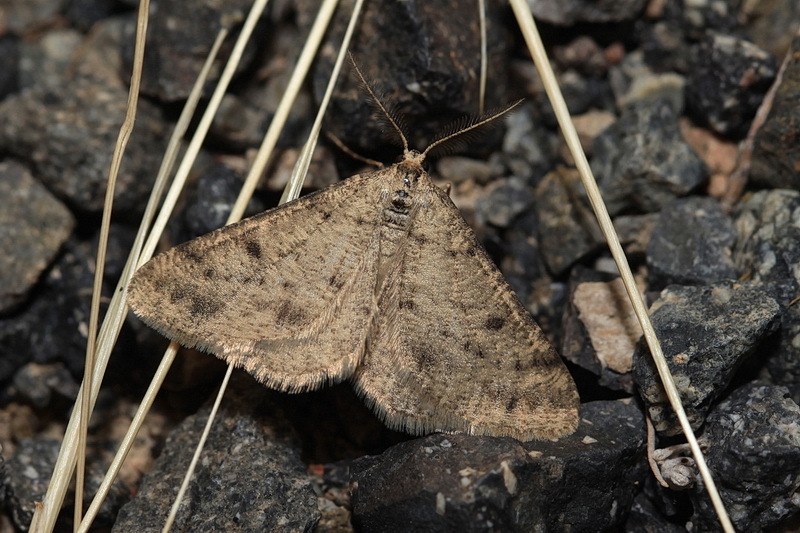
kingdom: Animalia
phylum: Arthropoda
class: Insecta
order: Lepidoptera
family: Geometridae
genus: Megametopon
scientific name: Megametopon grisolaria
